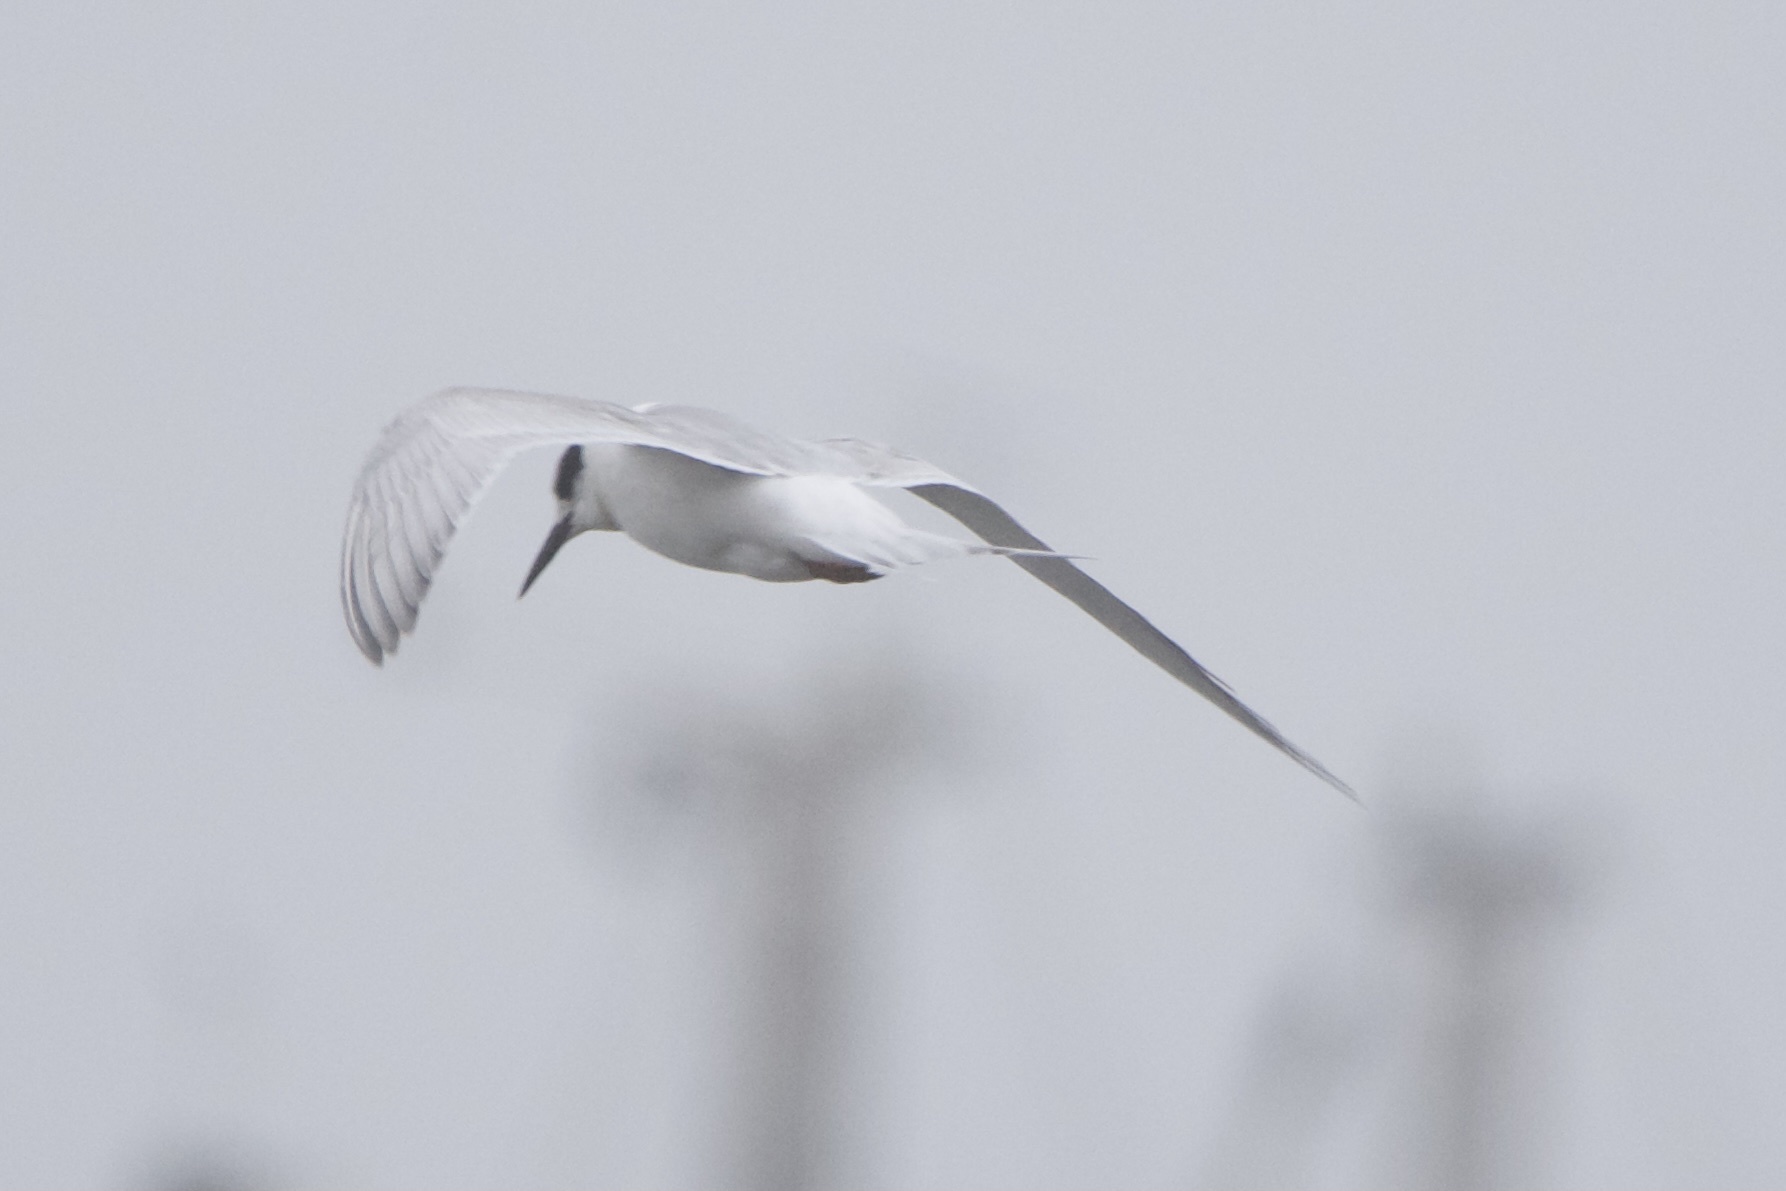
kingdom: Animalia
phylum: Chordata
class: Aves
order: Charadriiformes
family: Laridae
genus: Sterna
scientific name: Sterna forsteri
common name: Forster's tern
